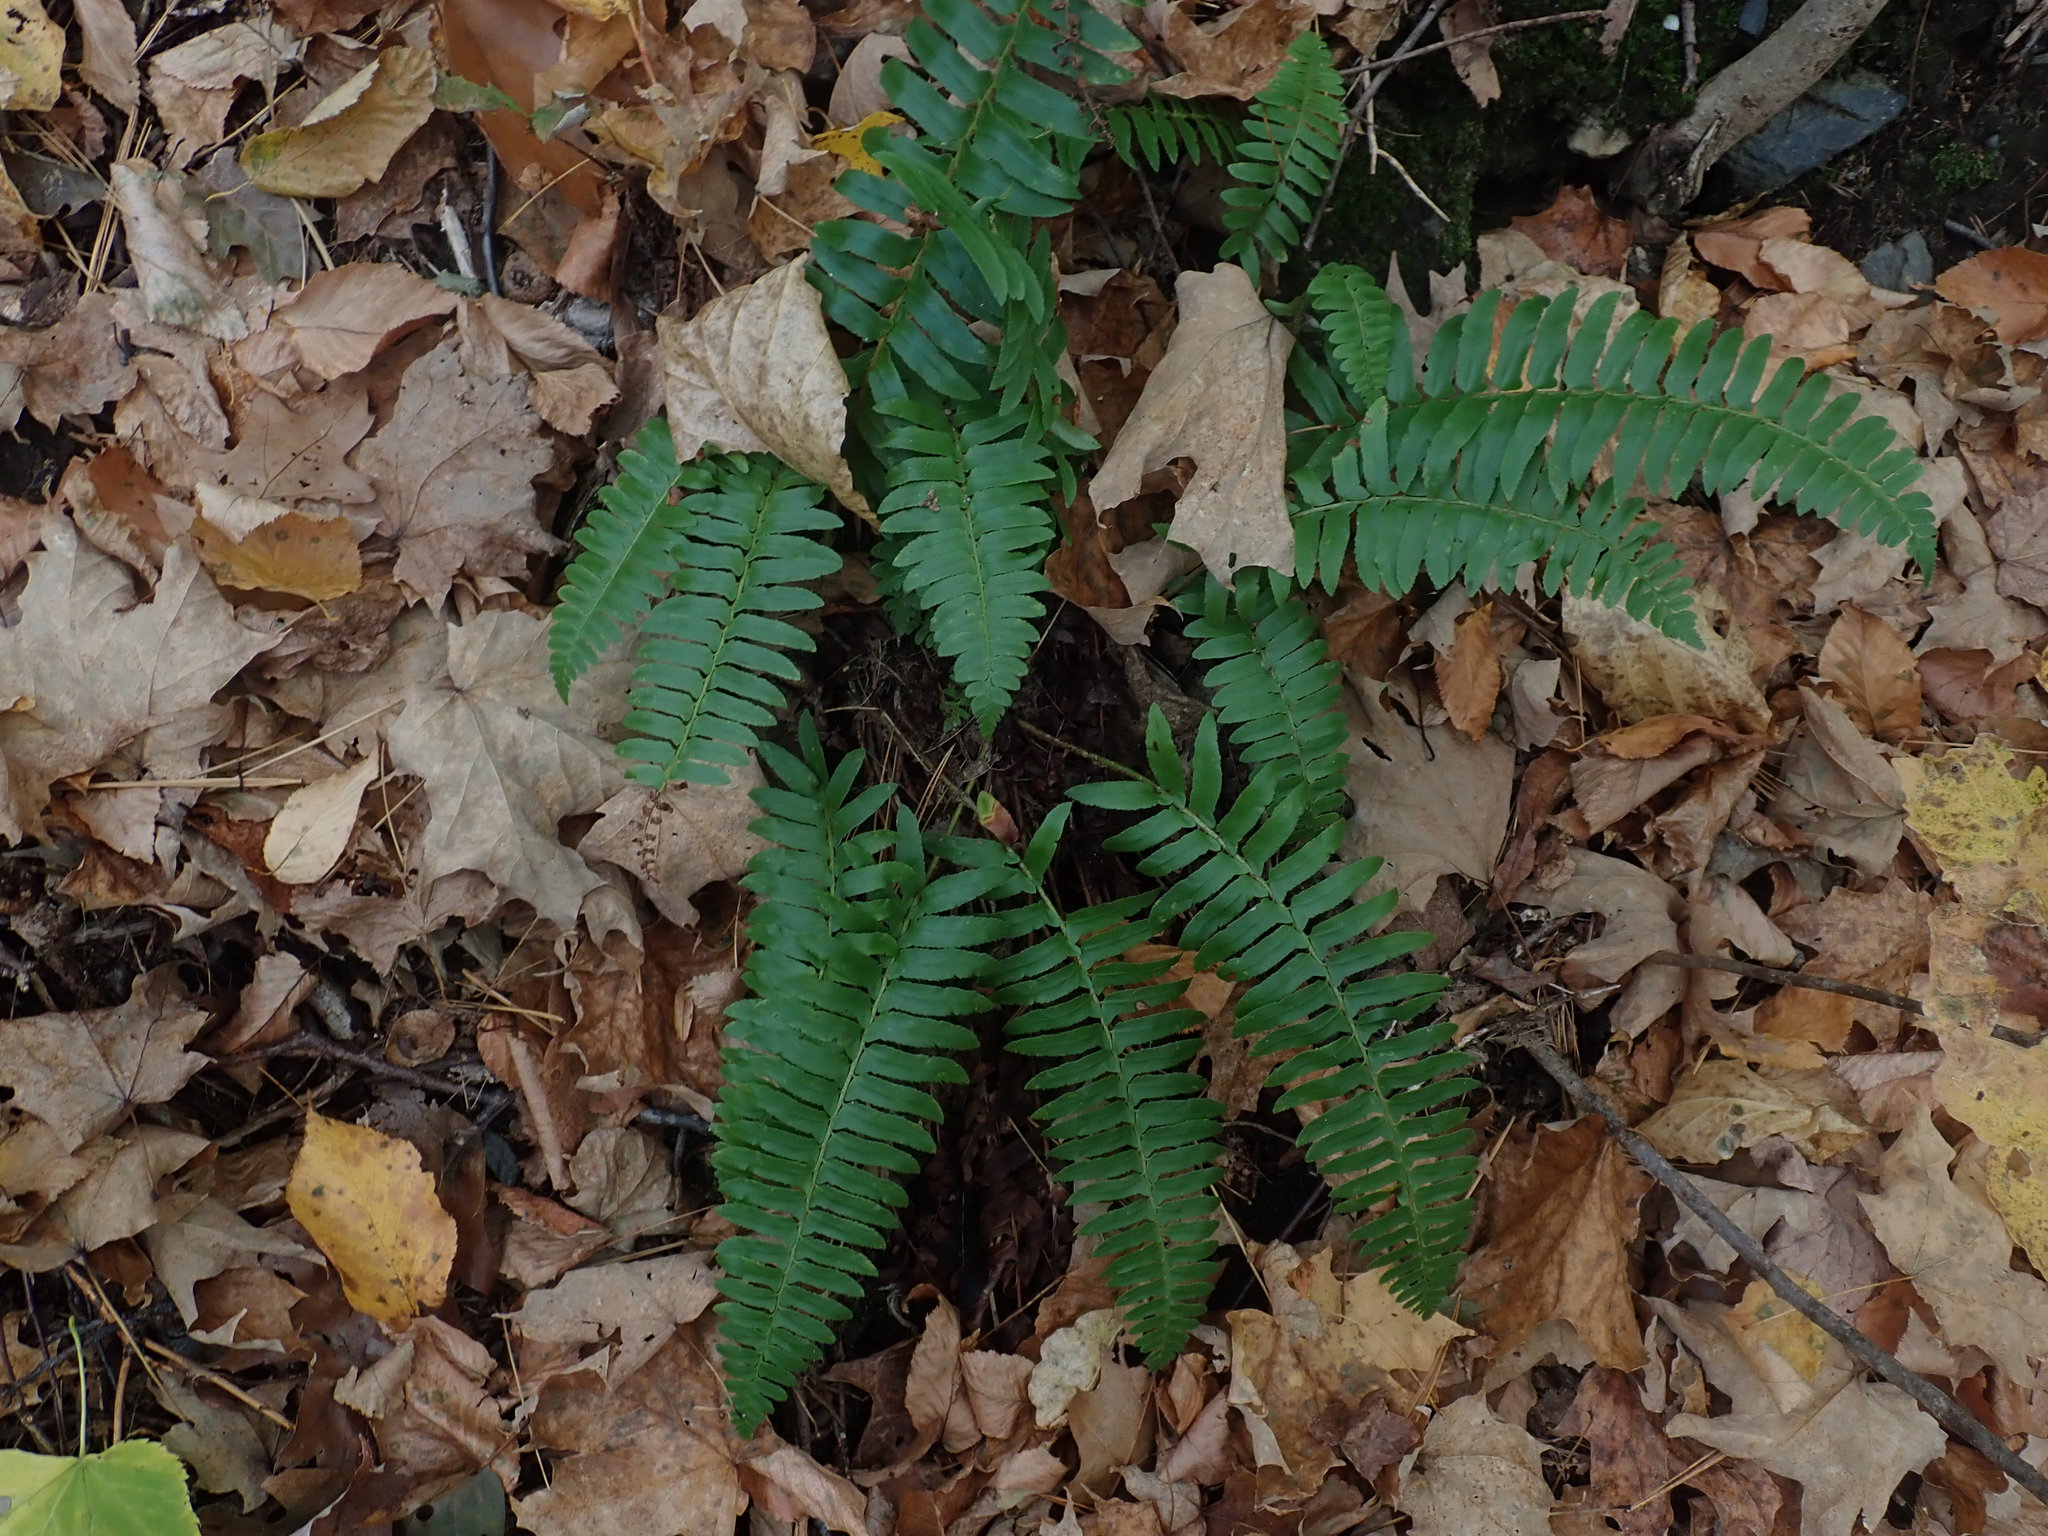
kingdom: Plantae
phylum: Tracheophyta
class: Polypodiopsida
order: Polypodiales
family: Dryopteridaceae
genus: Polystichum
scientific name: Polystichum acrostichoides
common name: Christmas fern
